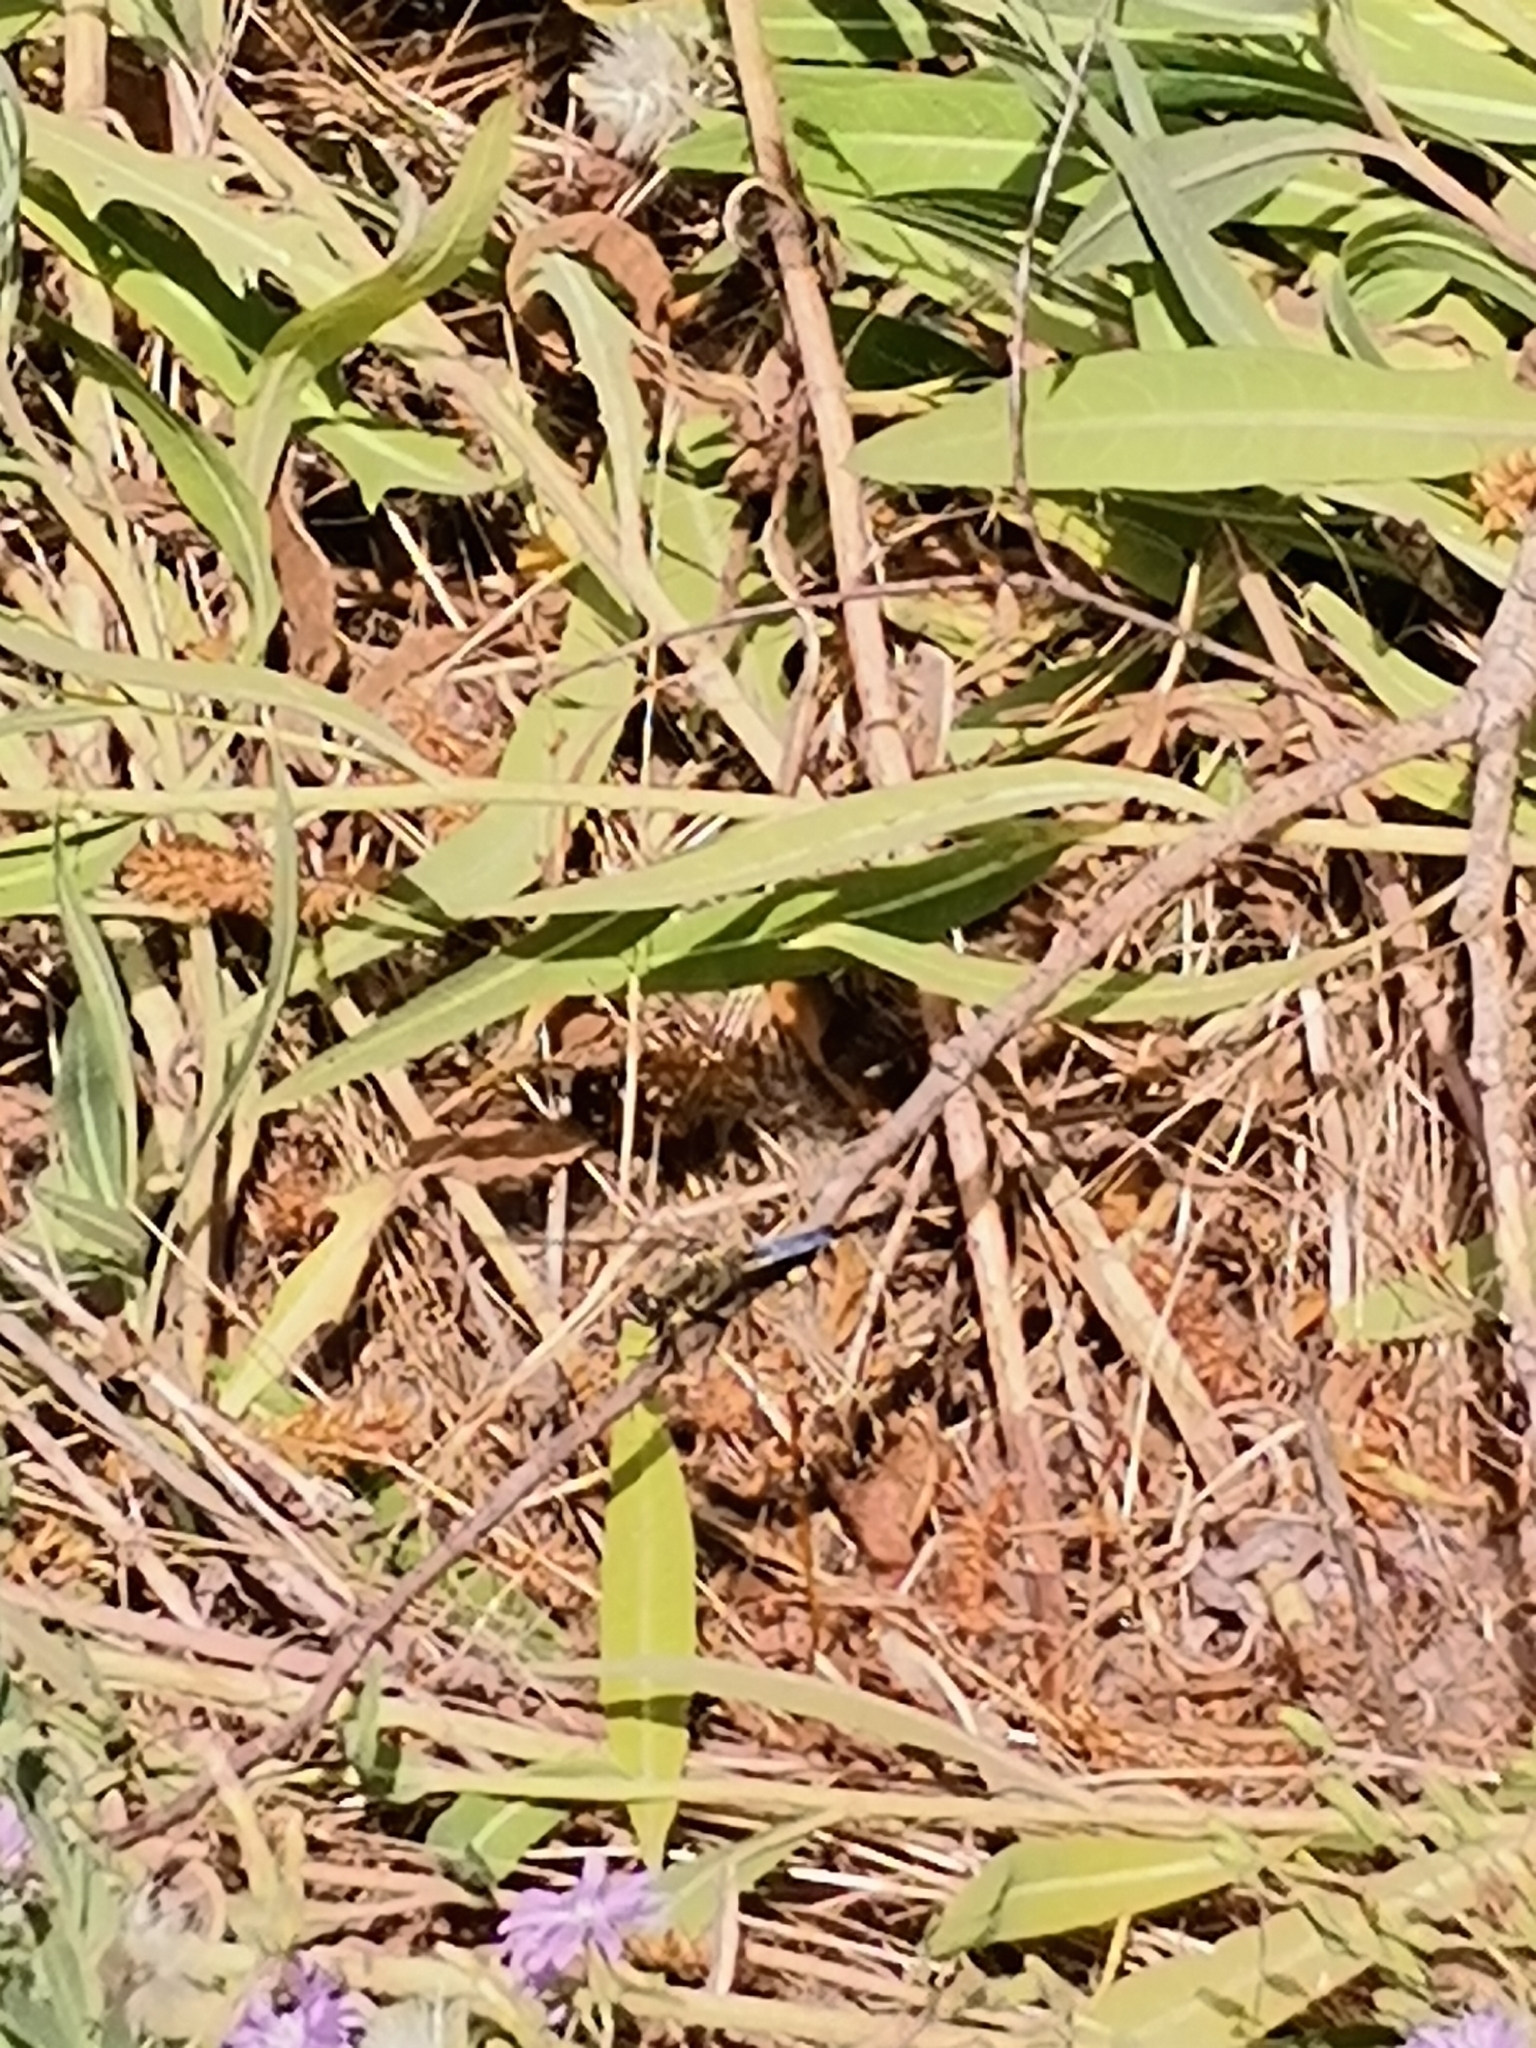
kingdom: Animalia
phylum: Arthropoda
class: Insecta
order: Odonata
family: Libellulidae
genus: Orthetrum
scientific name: Orthetrum cancellatum
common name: Black-tailed skimmer
